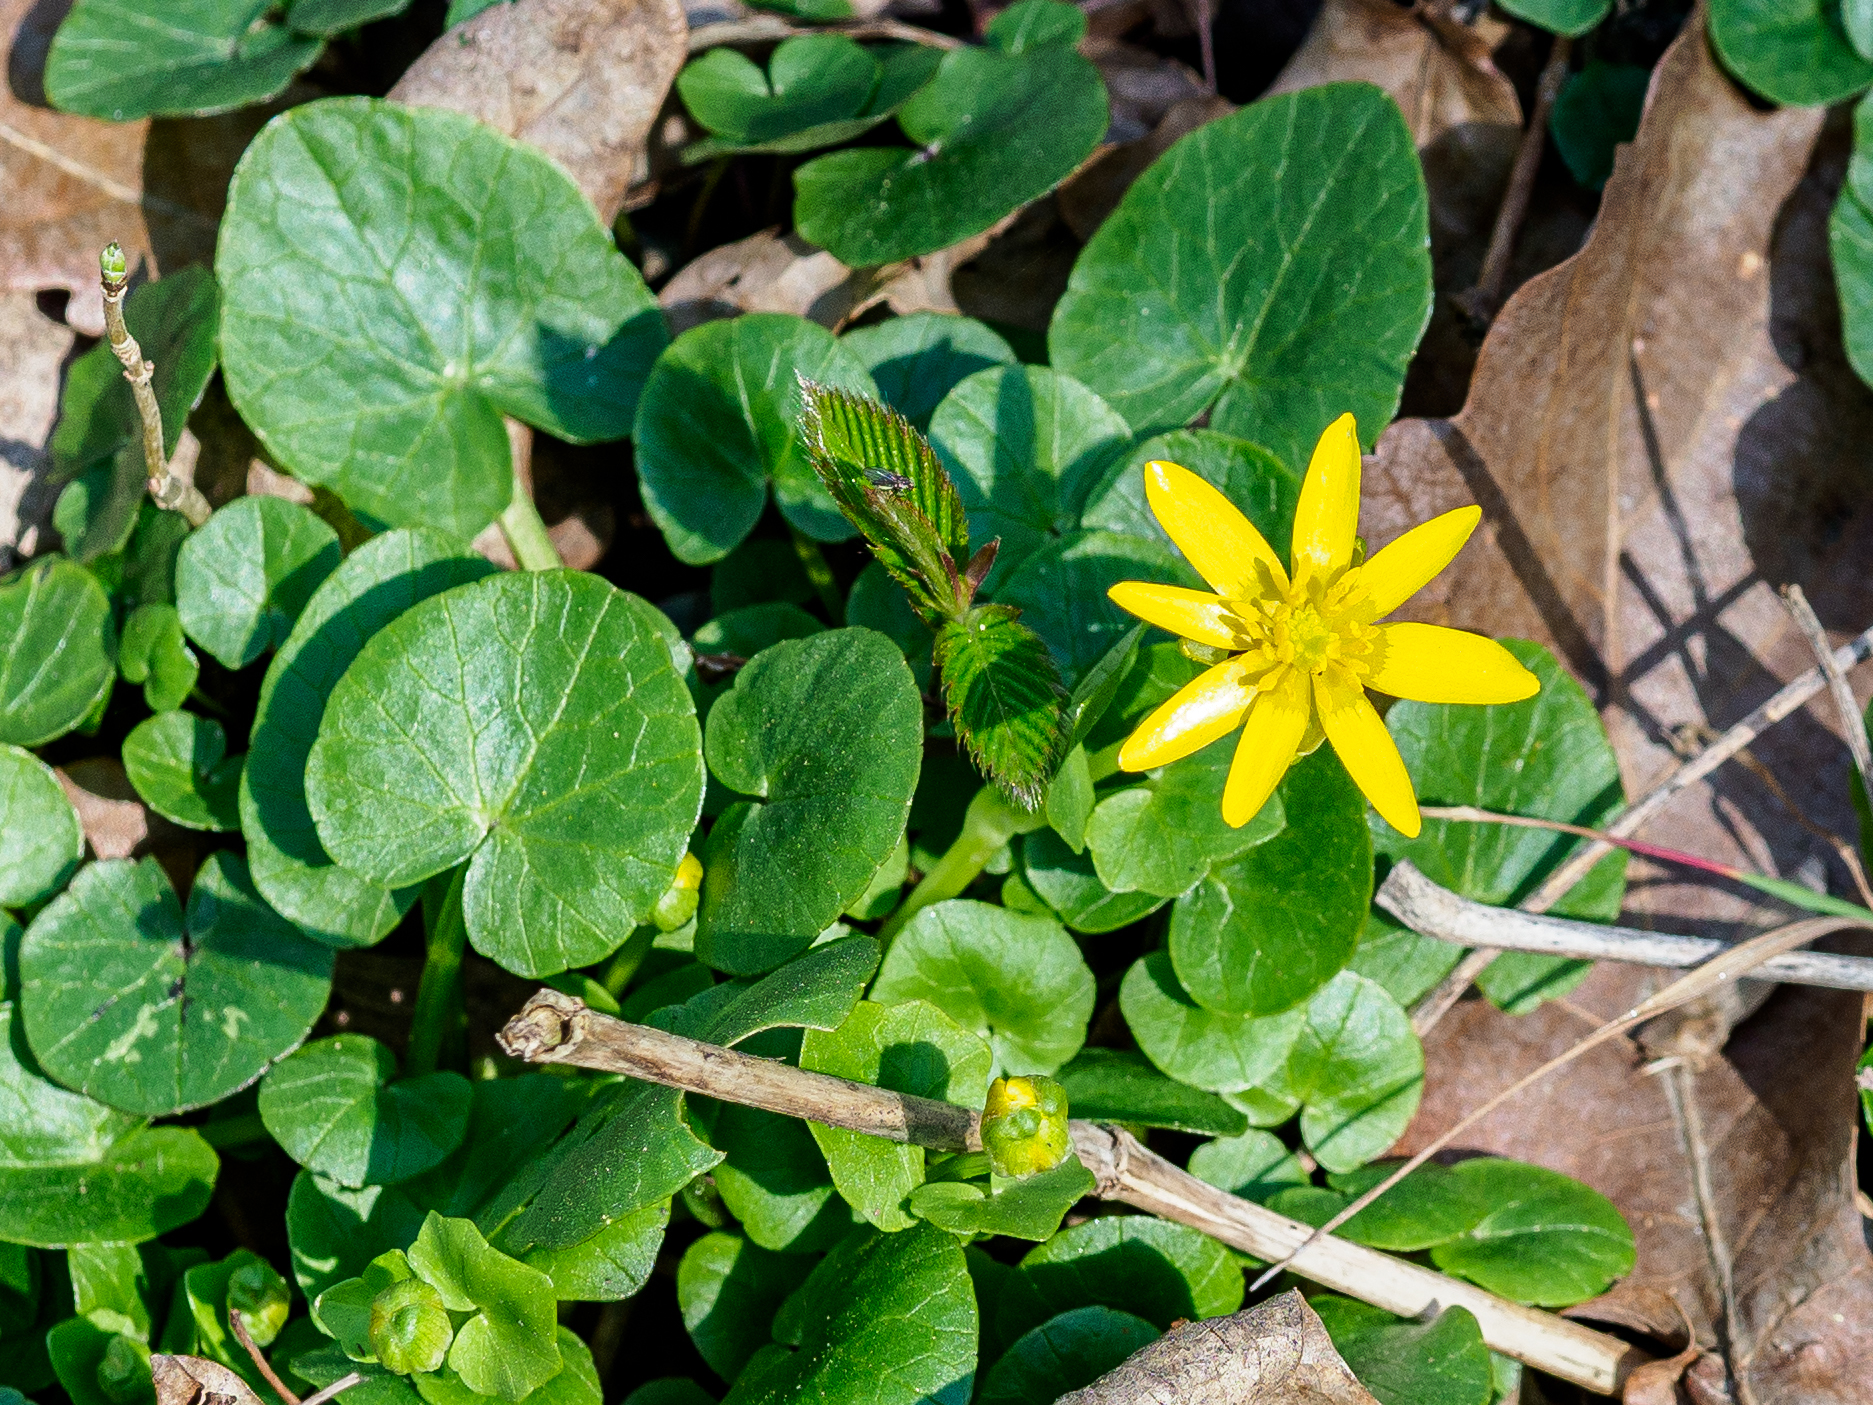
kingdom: Plantae
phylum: Tracheophyta
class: Magnoliopsida
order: Ranunculales
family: Ranunculaceae
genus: Ficaria
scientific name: Ficaria verna
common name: Lesser celandine
